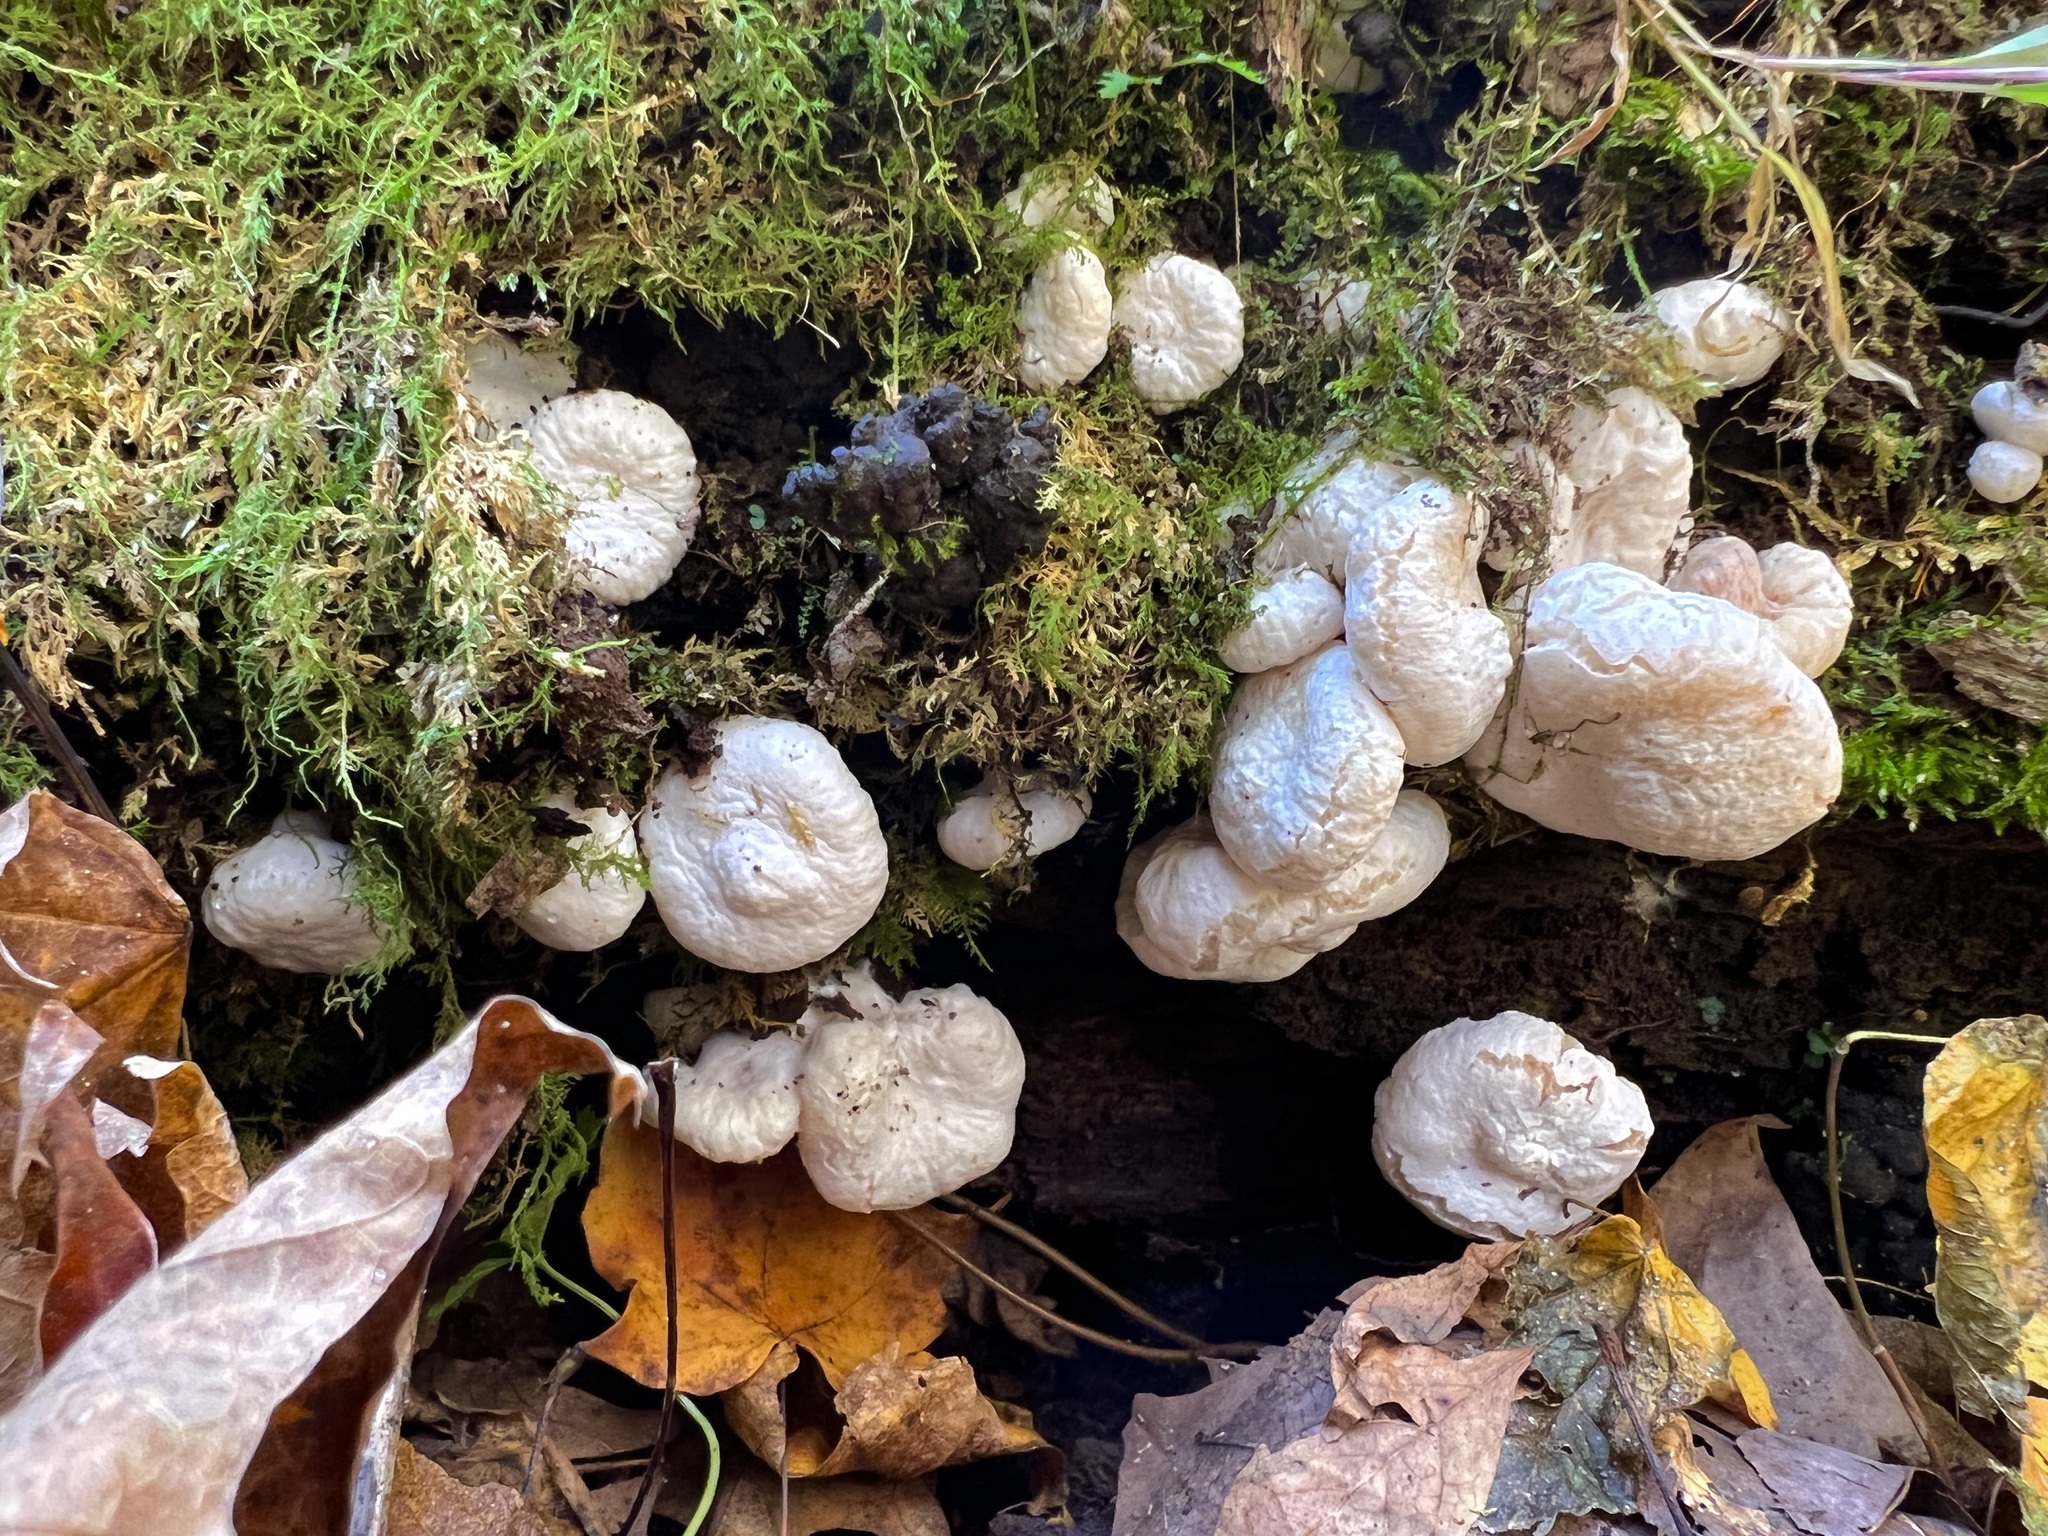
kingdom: Fungi
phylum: Basidiomycota
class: Agaricomycetes
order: Agaricales
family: Entolomataceae
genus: Entoloma
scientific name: Entoloma abortivum
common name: Aborted entoloma
